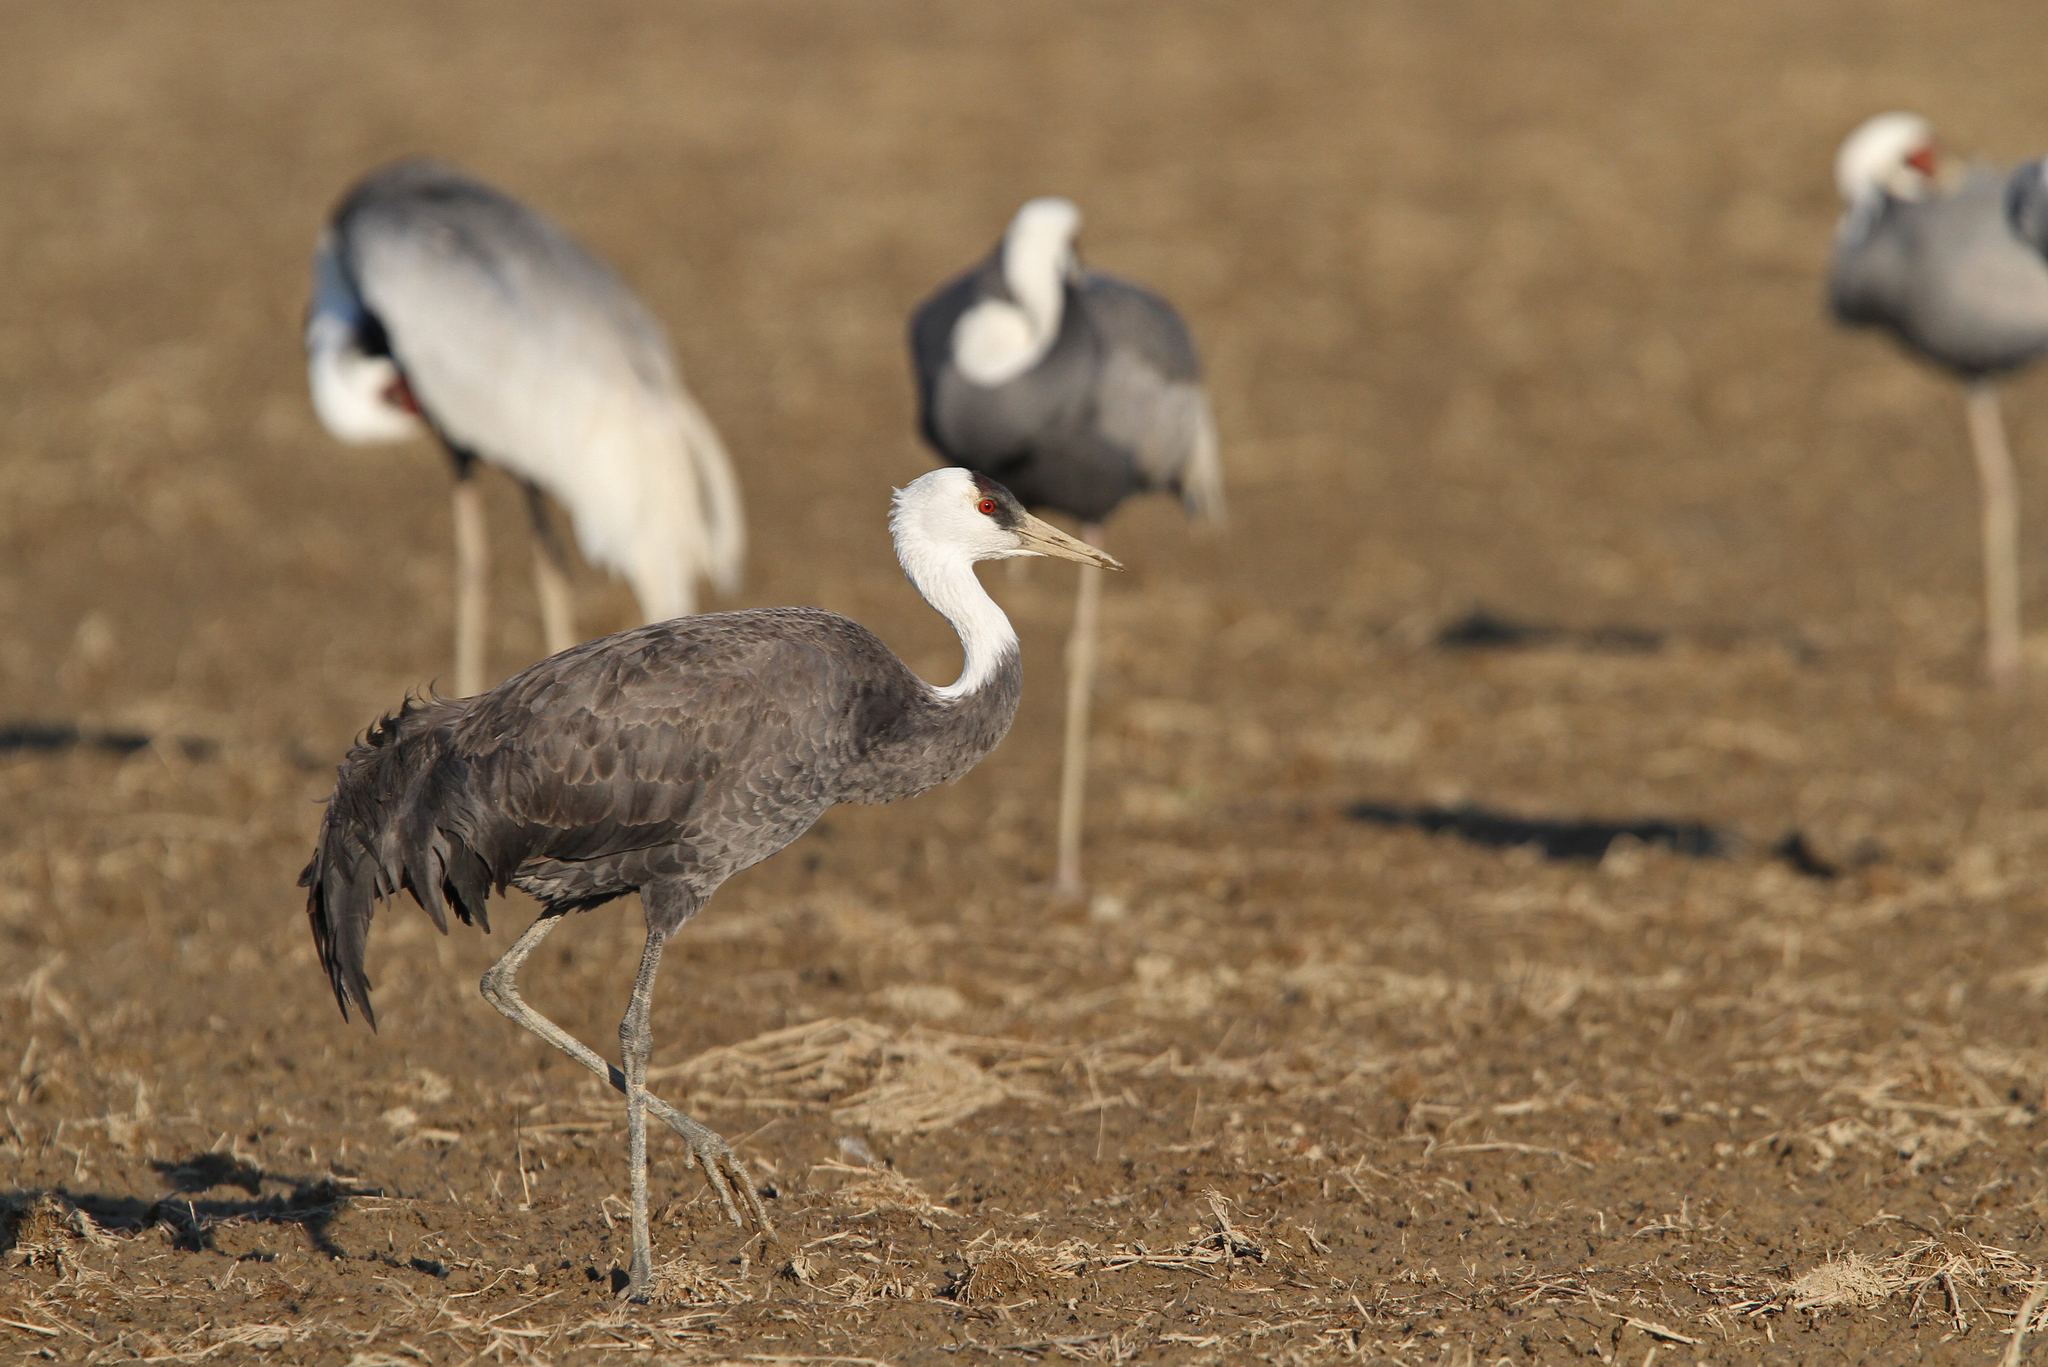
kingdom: Animalia
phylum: Chordata
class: Aves
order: Gruiformes
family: Gruidae
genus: Grus
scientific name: Grus monacha
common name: Hooded crane
